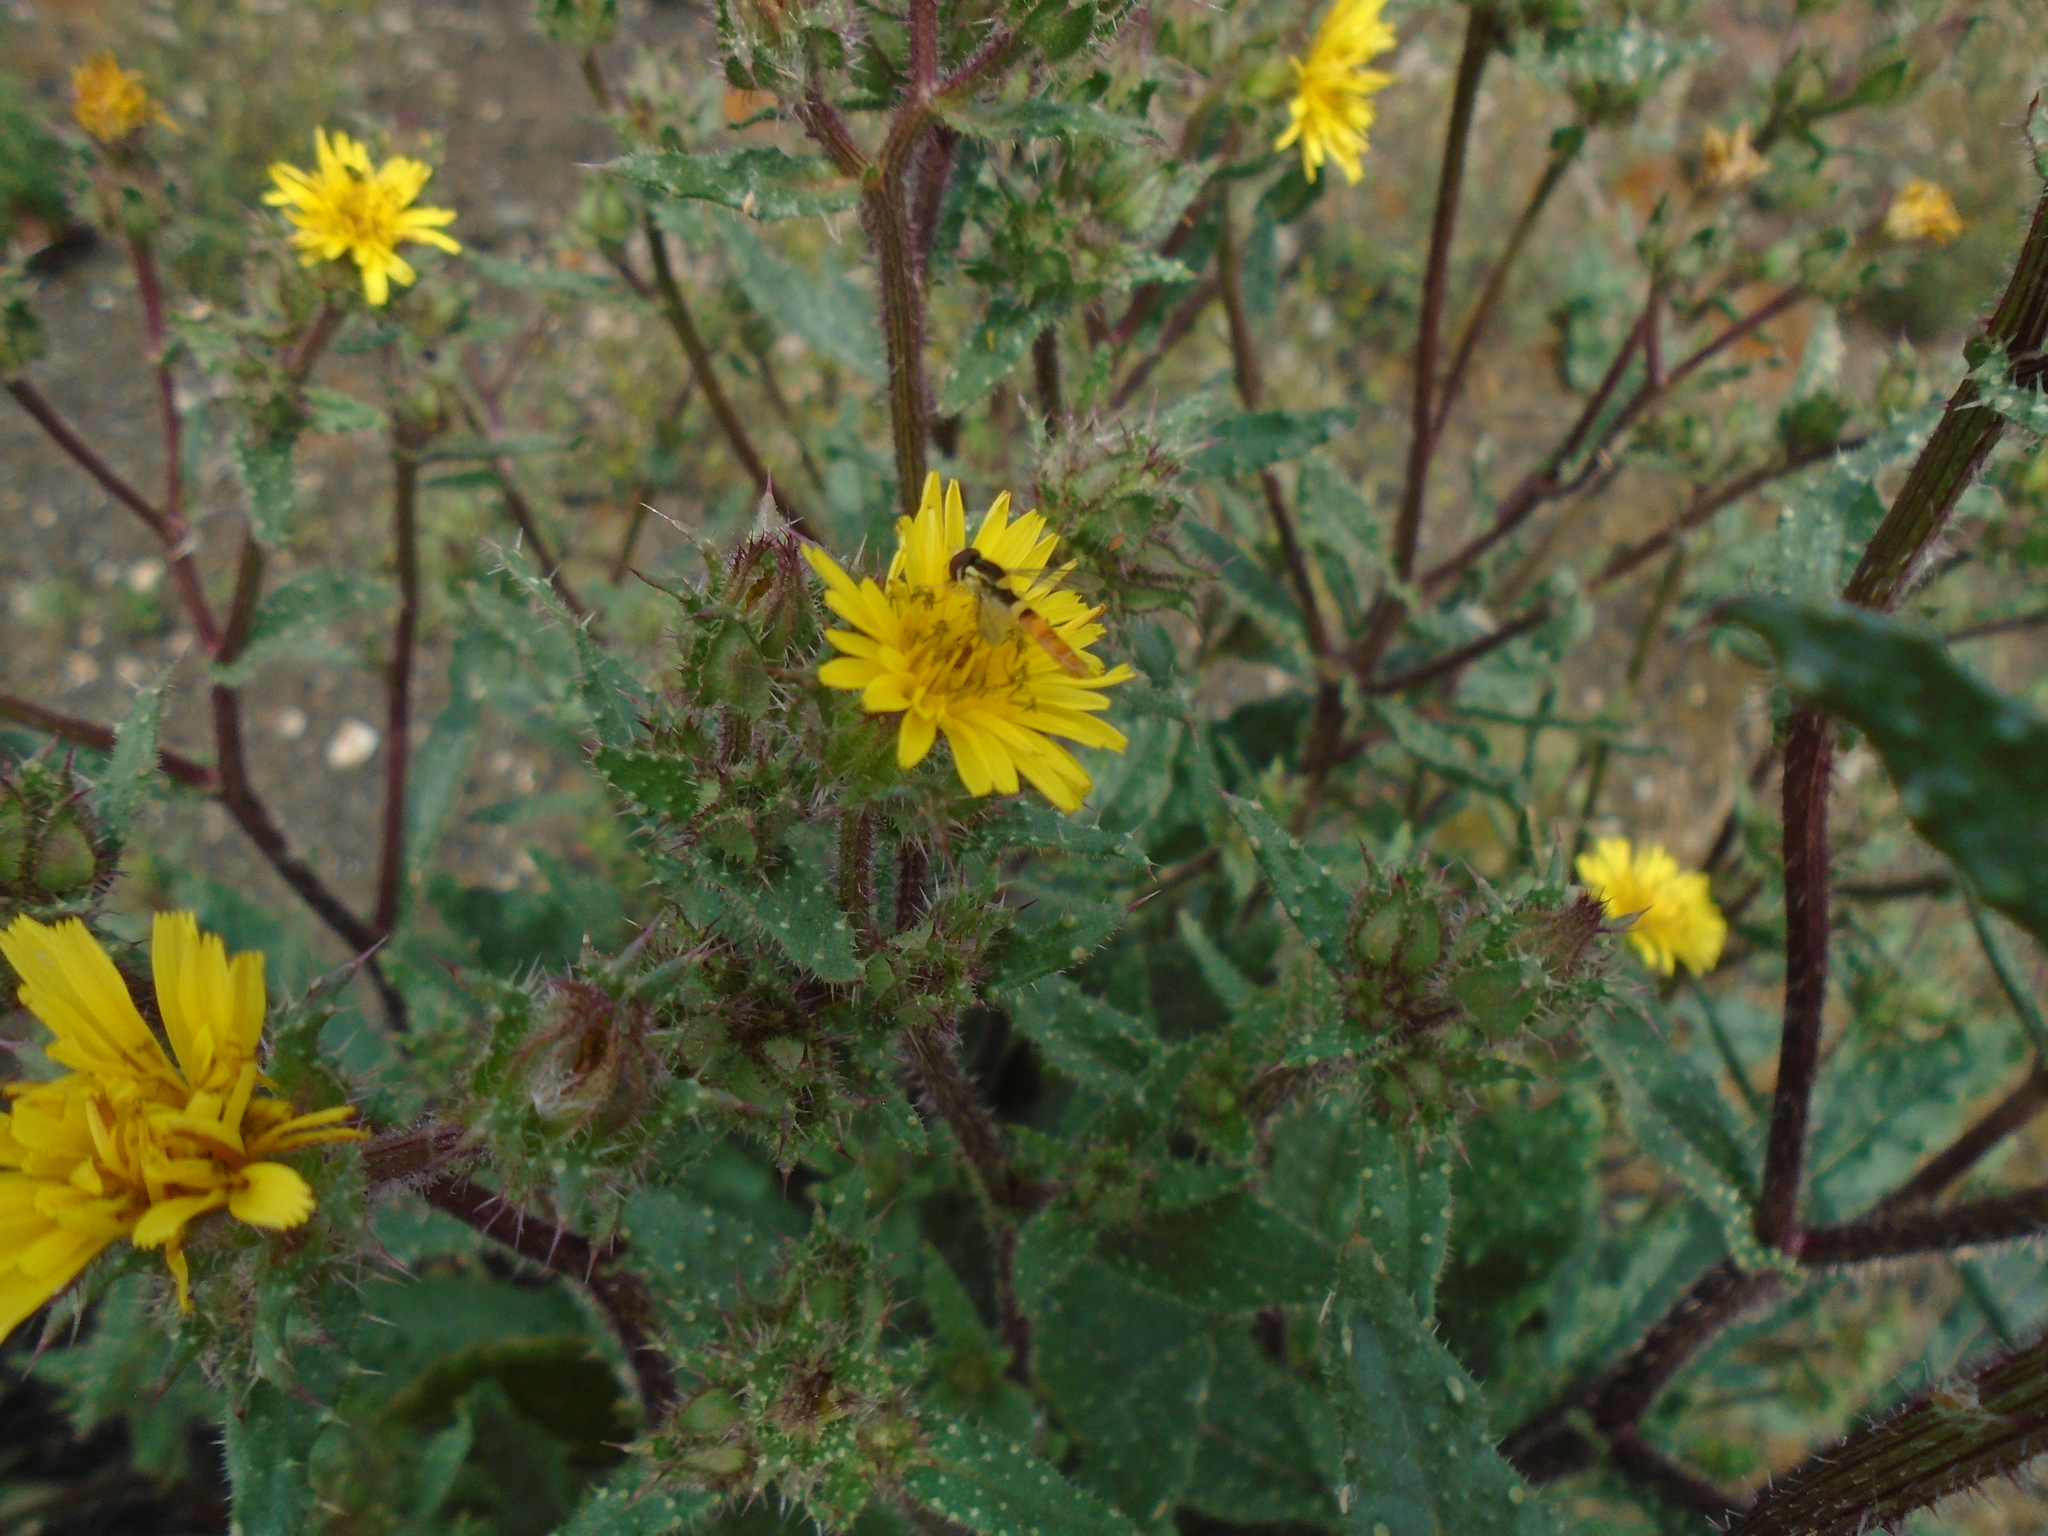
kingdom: Animalia
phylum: Arthropoda
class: Insecta
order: Diptera
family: Syrphidae
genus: Sphaerophoria
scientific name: Sphaerophoria scripta
